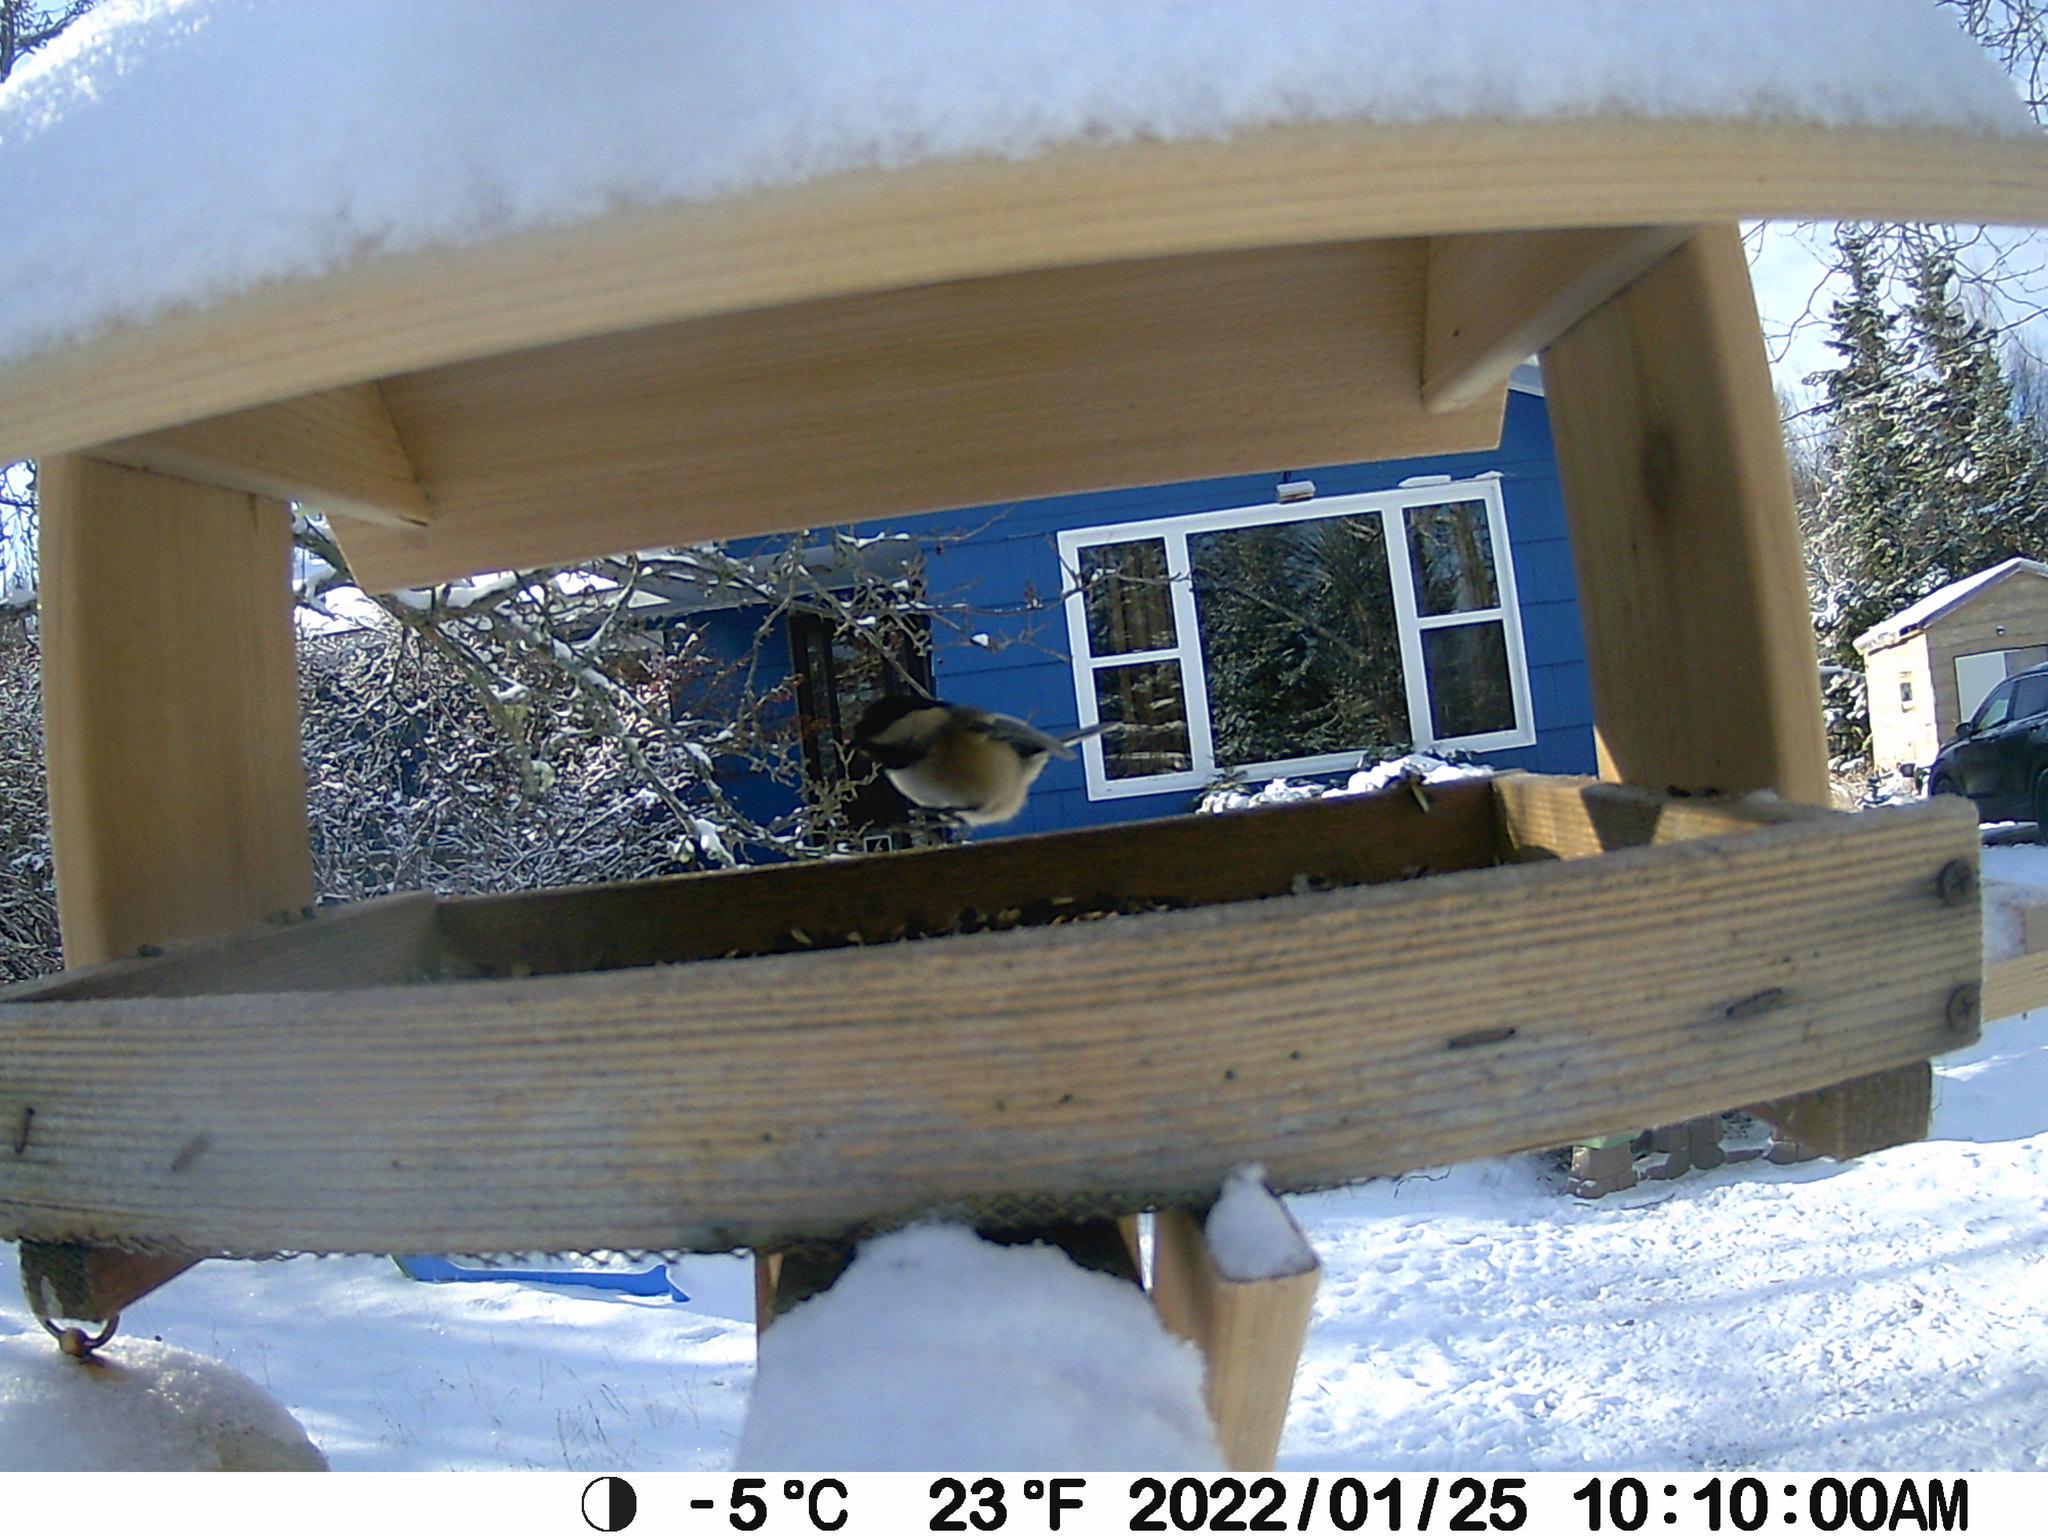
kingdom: Animalia
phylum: Chordata
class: Aves
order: Passeriformes
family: Paridae
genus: Poecile
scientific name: Poecile atricapillus
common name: Black-capped chickadee
